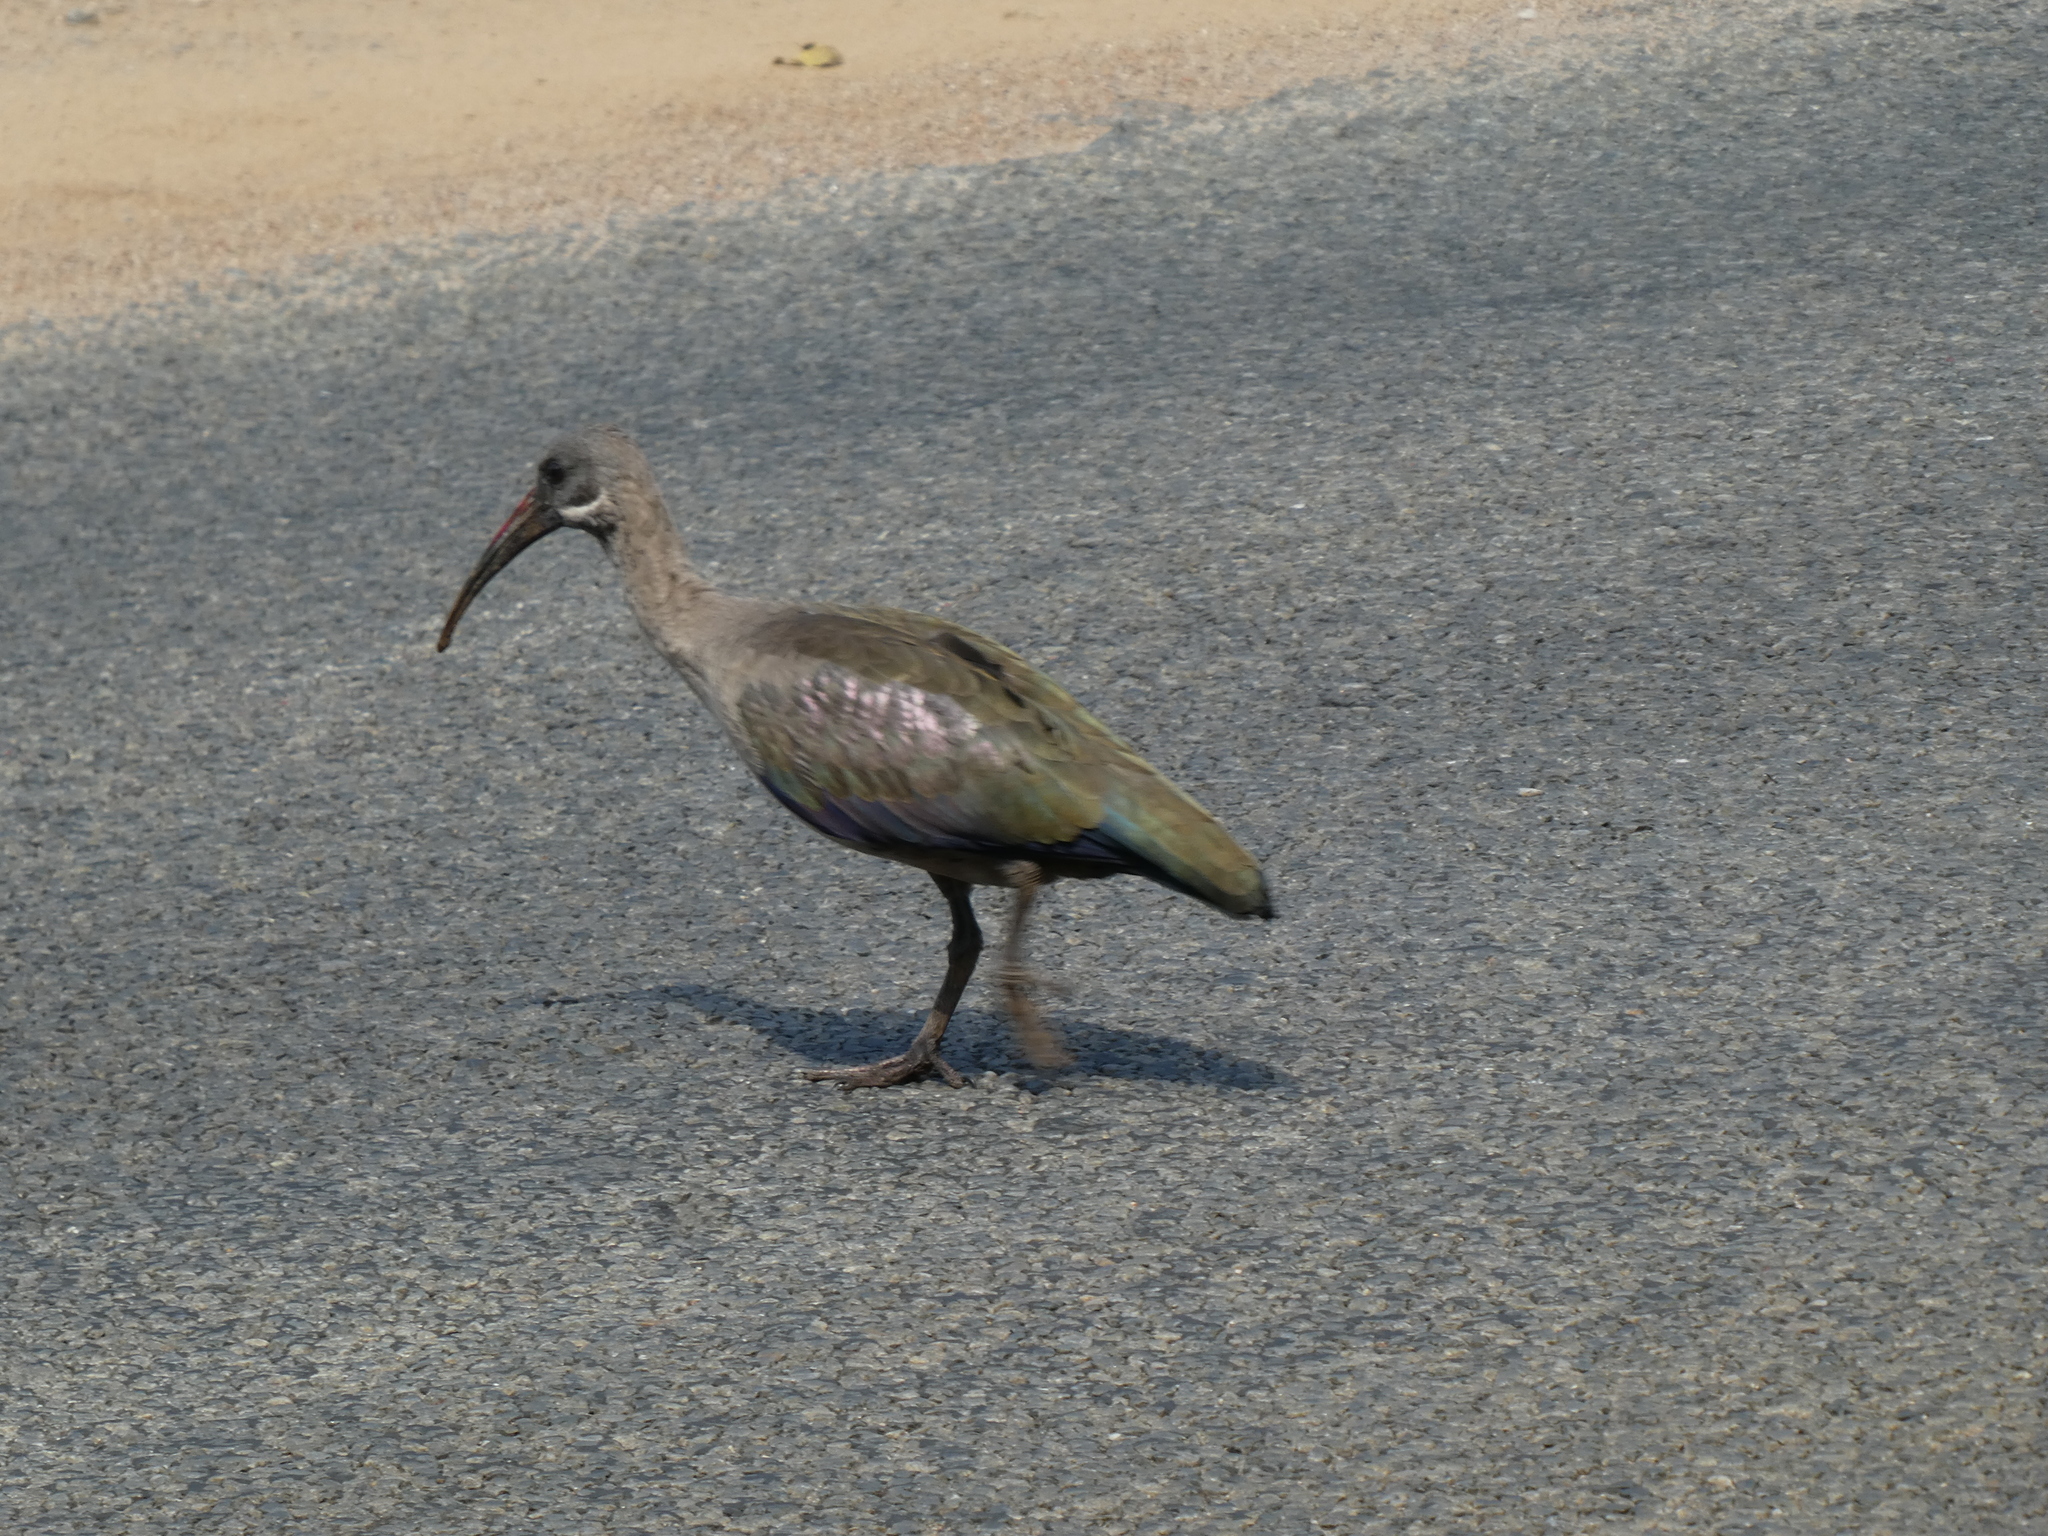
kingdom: Animalia
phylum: Chordata
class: Aves
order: Pelecaniformes
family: Threskiornithidae
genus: Bostrychia
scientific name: Bostrychia hagedash
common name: Hadada ibis
